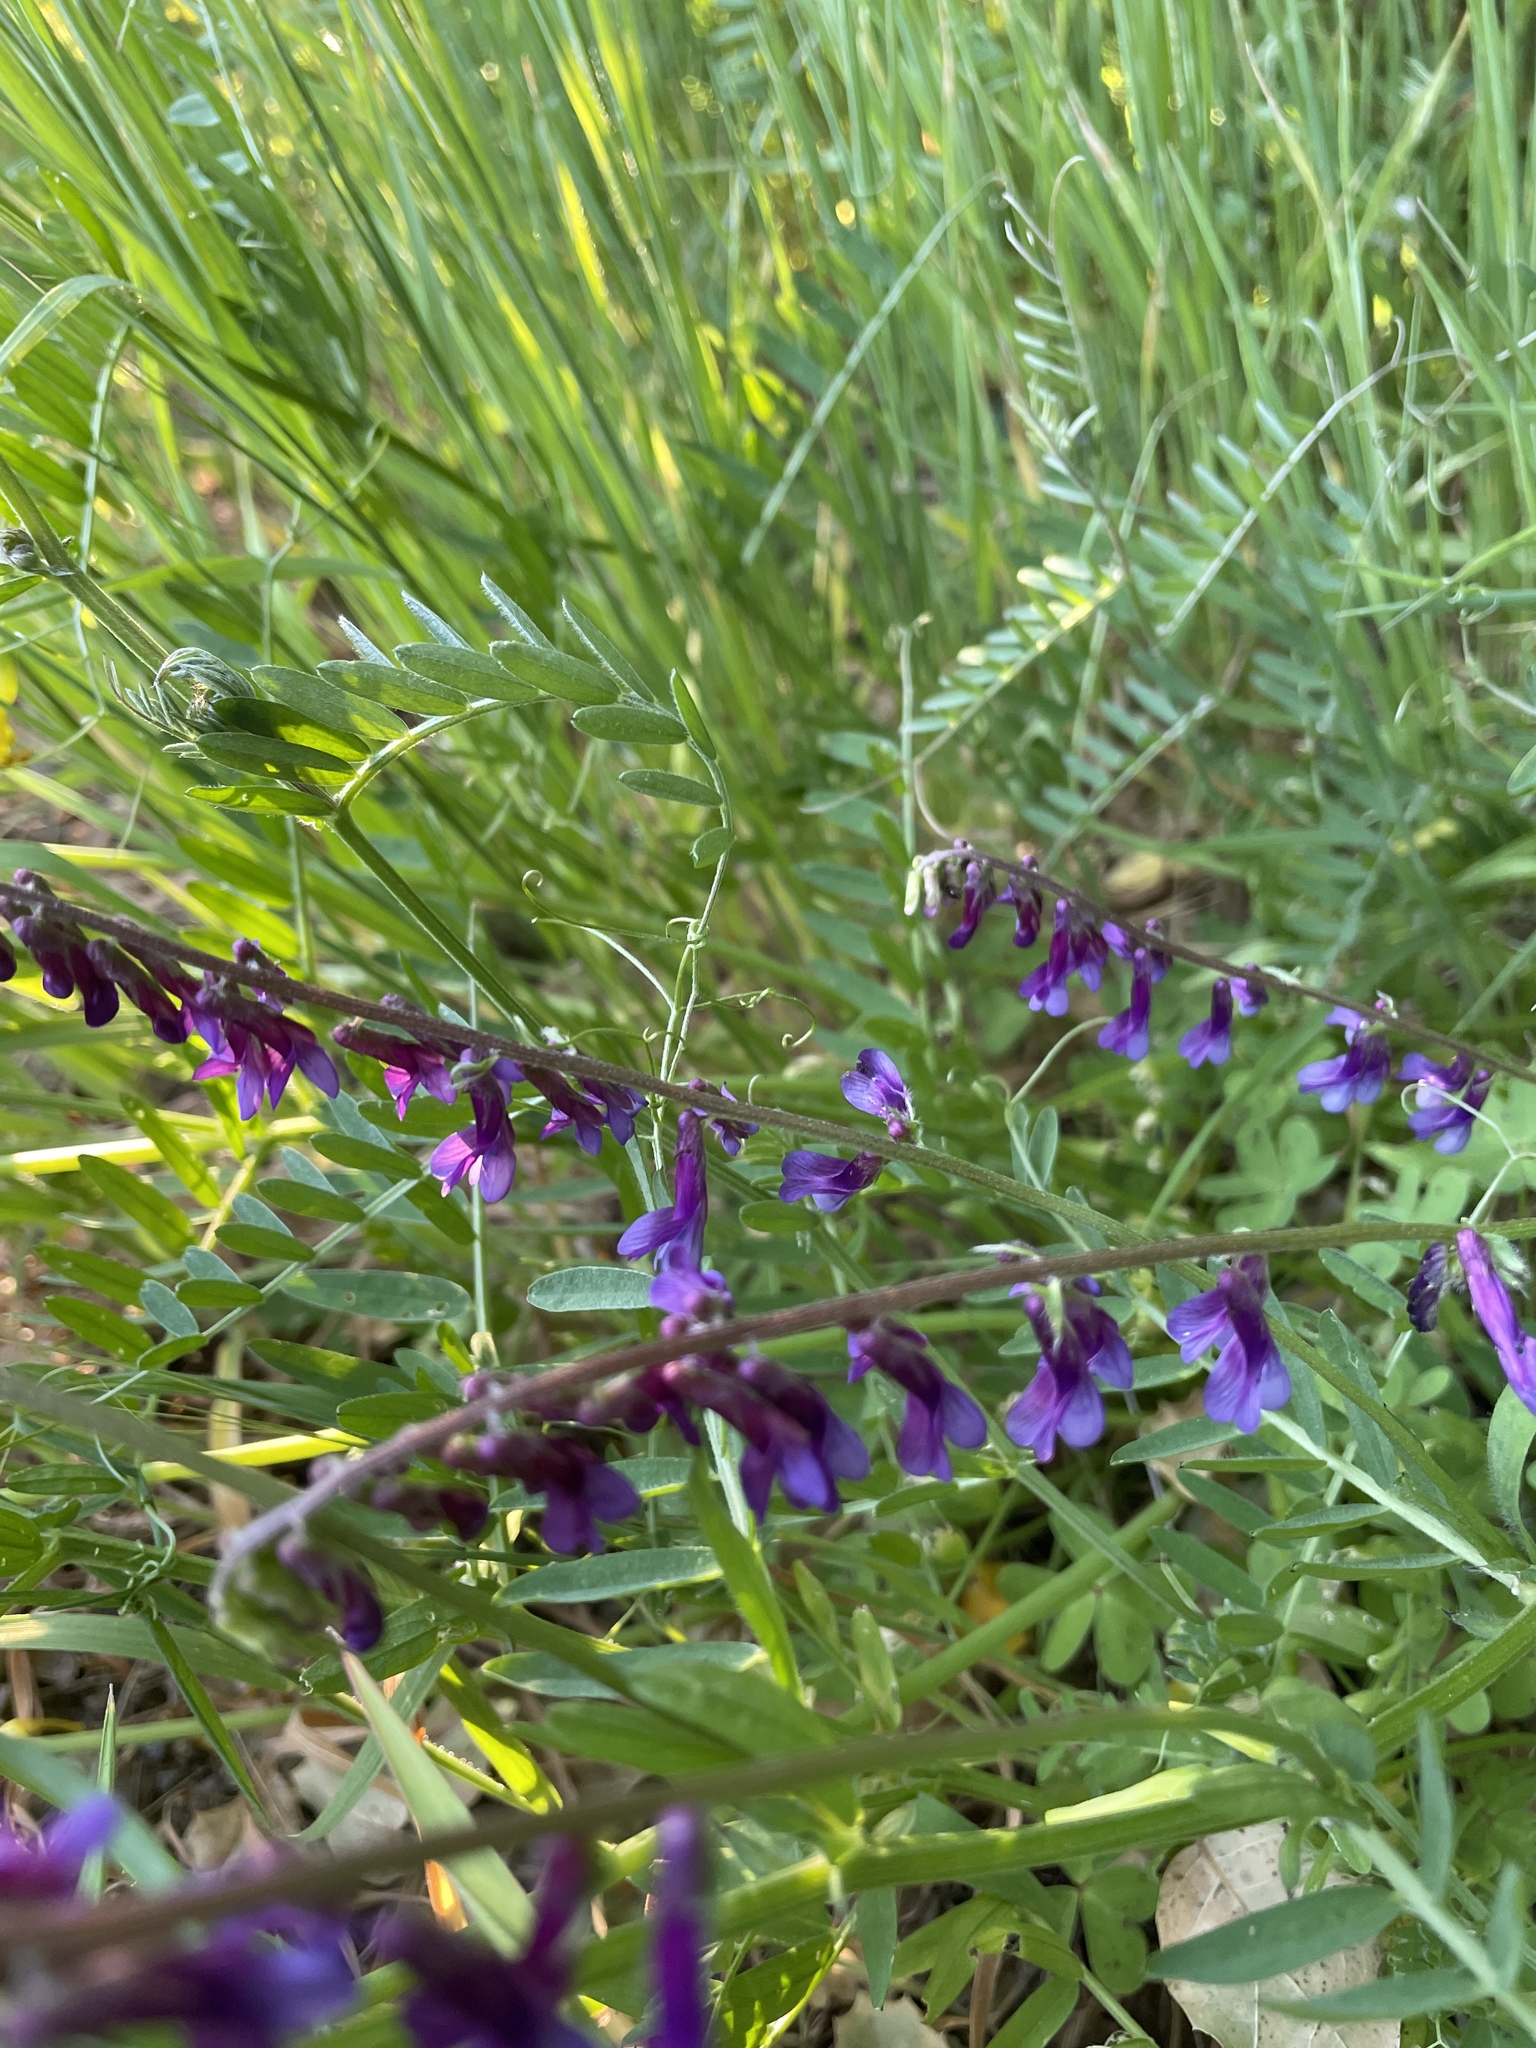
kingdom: Plantae
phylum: Tracheophyta
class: Magnoliopsida
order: Fabales
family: Fabaceae
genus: Vicia
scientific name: Vicia villosa
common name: Fodder vetch
